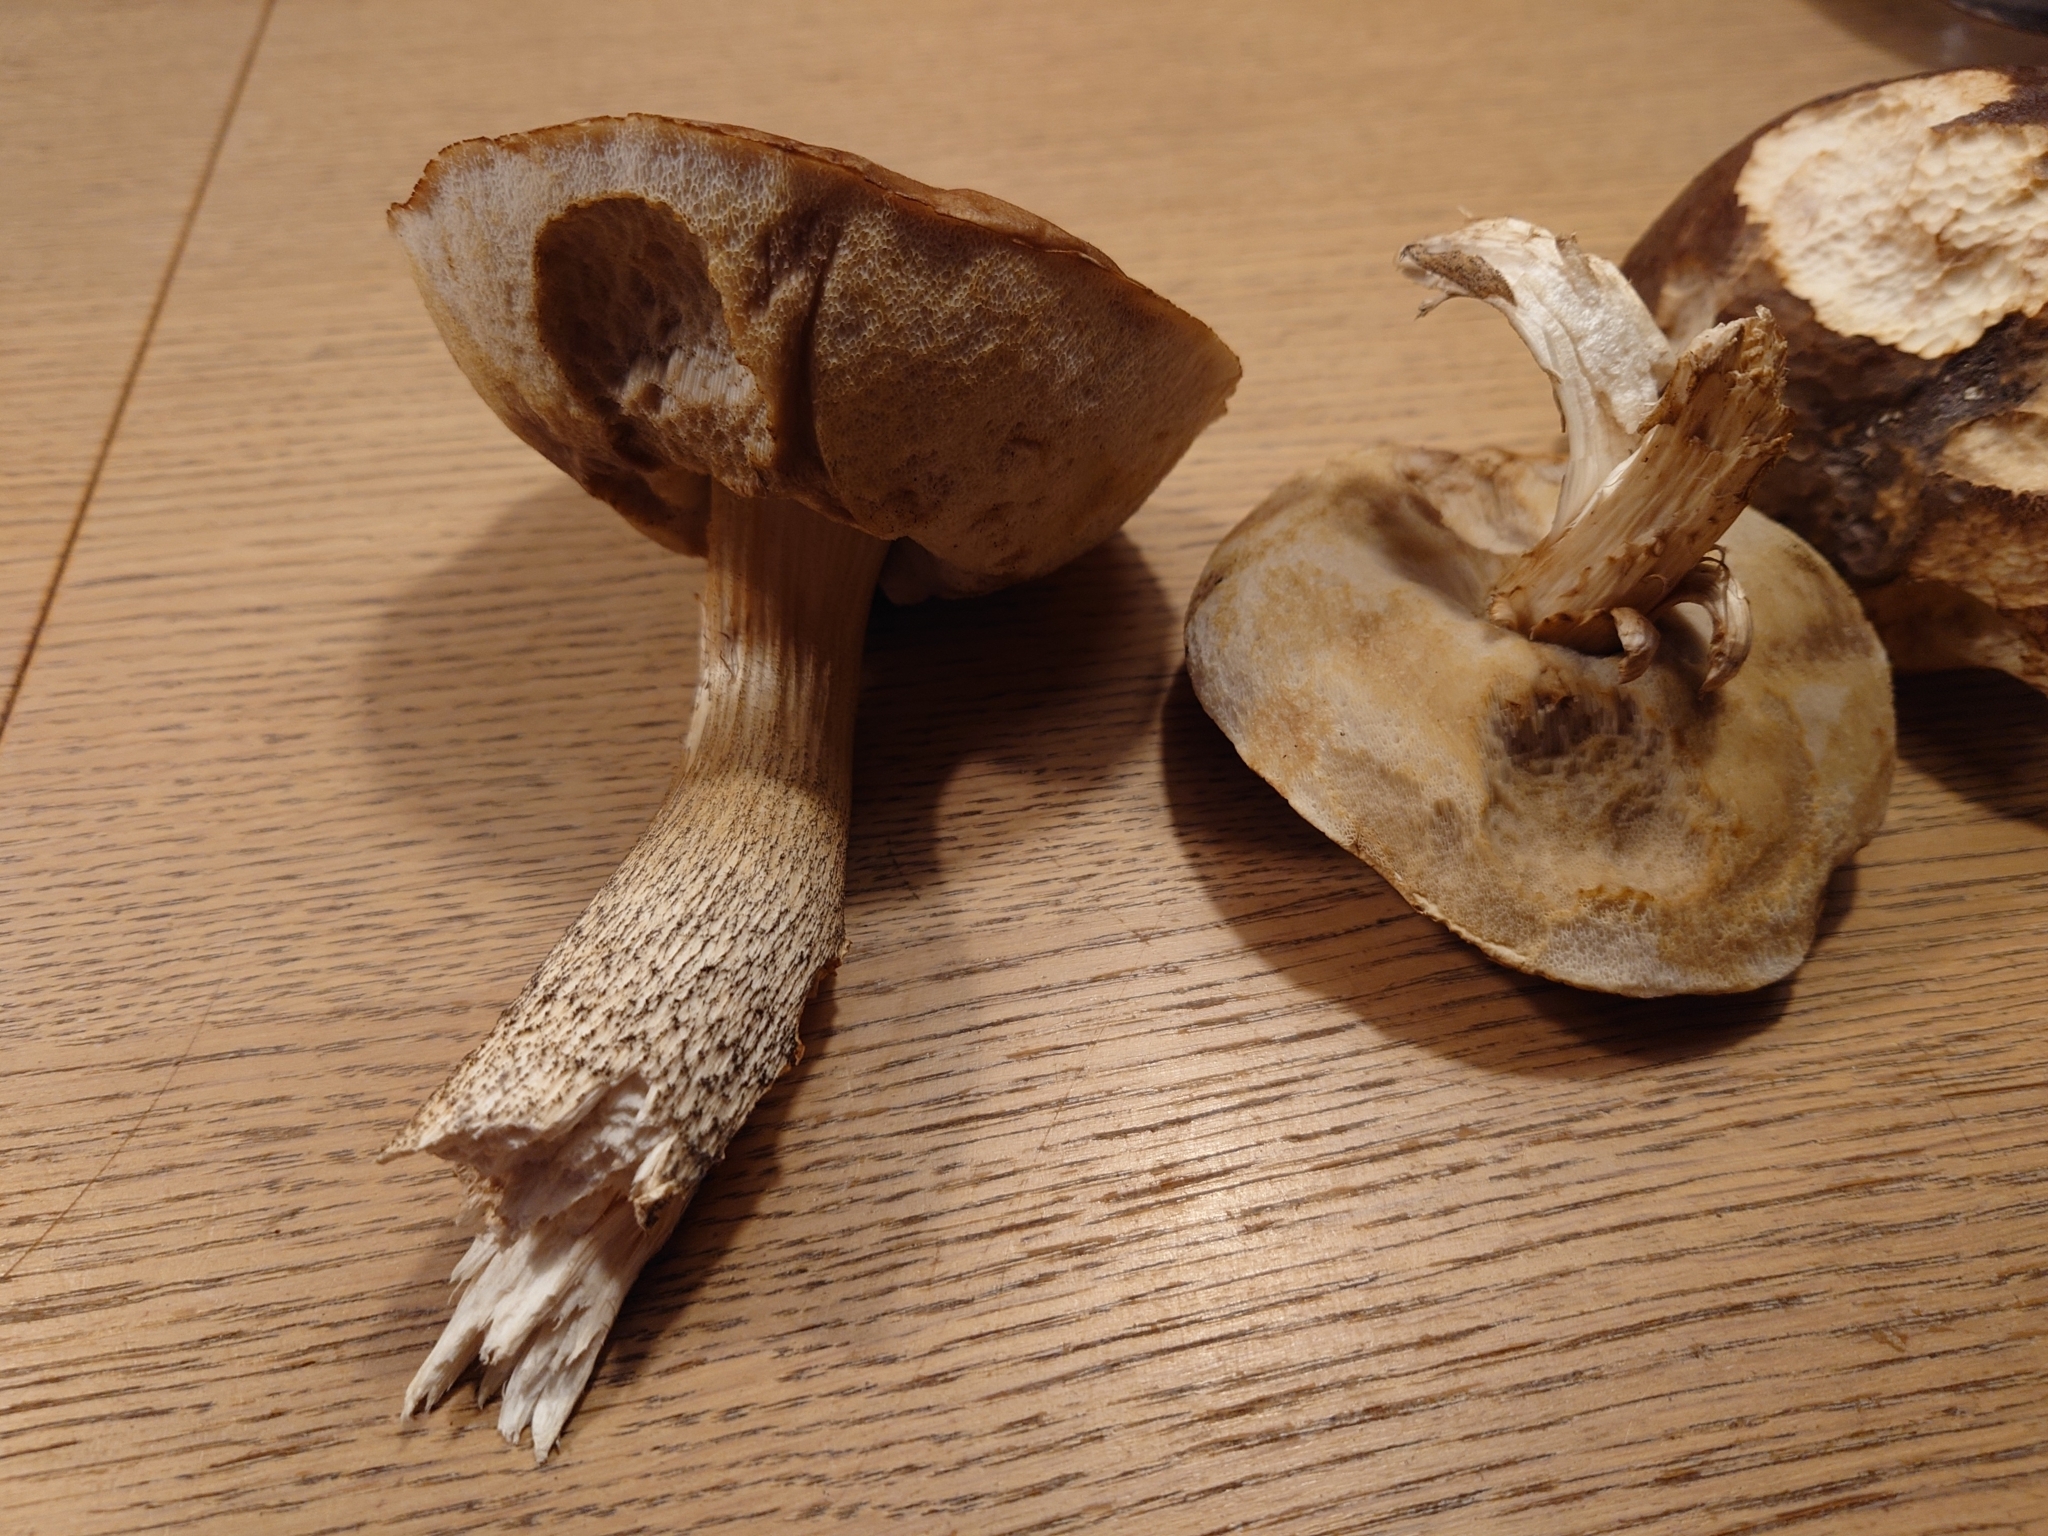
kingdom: Fungi
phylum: Basidiomycota
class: Agaricomycetes
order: Boletales
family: Boletaceae
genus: Leccinum
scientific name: Leccinum scabrum
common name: Blushing bolete
